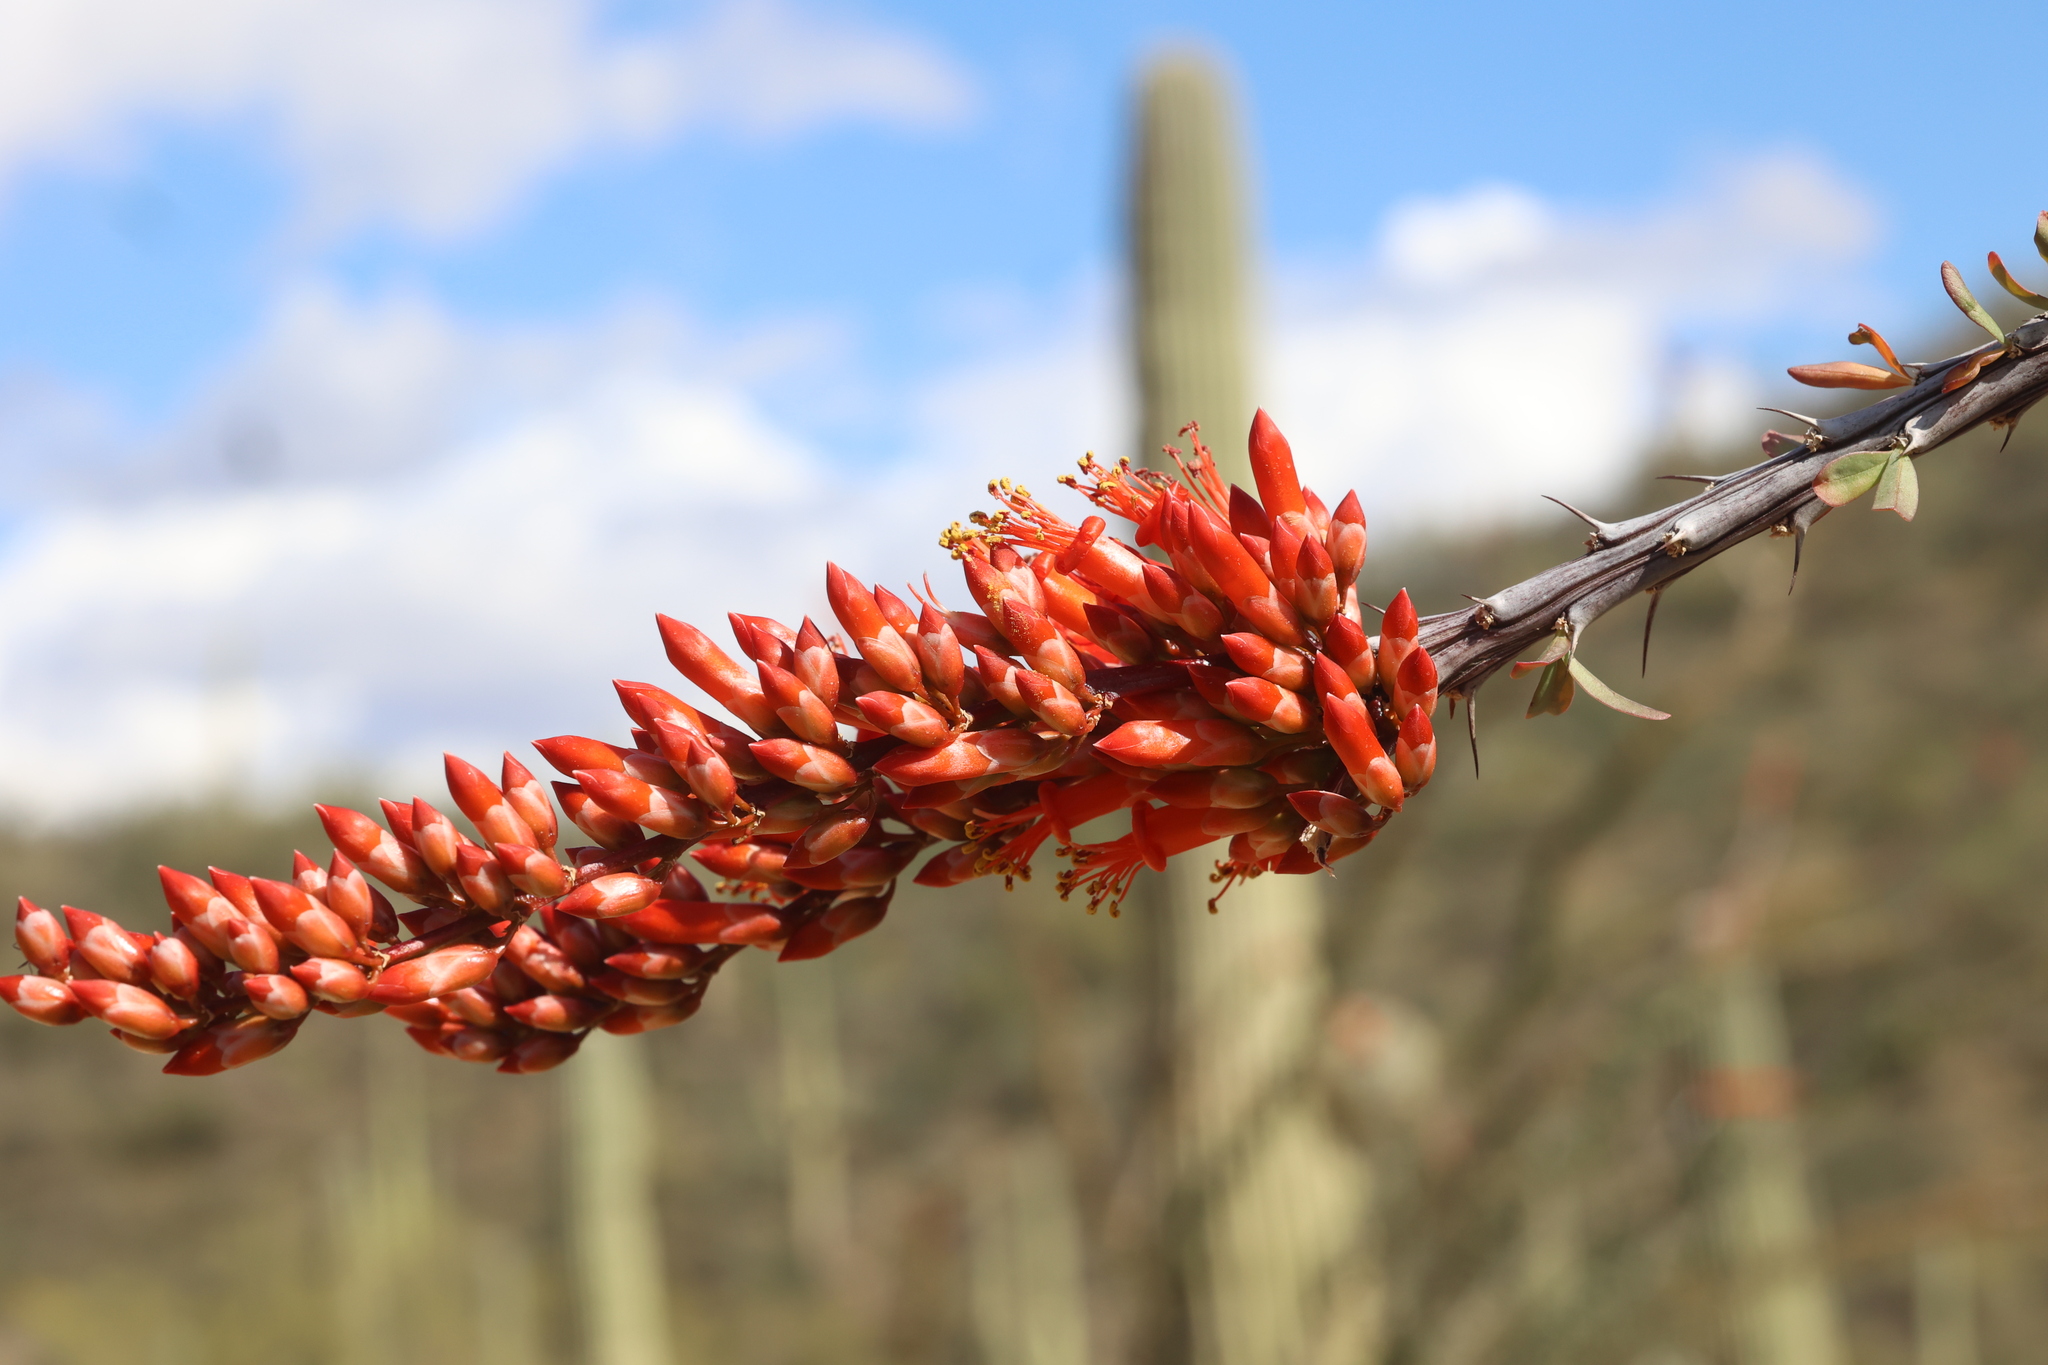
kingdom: Plantae
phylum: Tracheophyta
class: Magnoliopsida
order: Ericales
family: Fouquieriaceae
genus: Fouquieria
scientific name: Fouquieria splendens
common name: Vine-cactus
